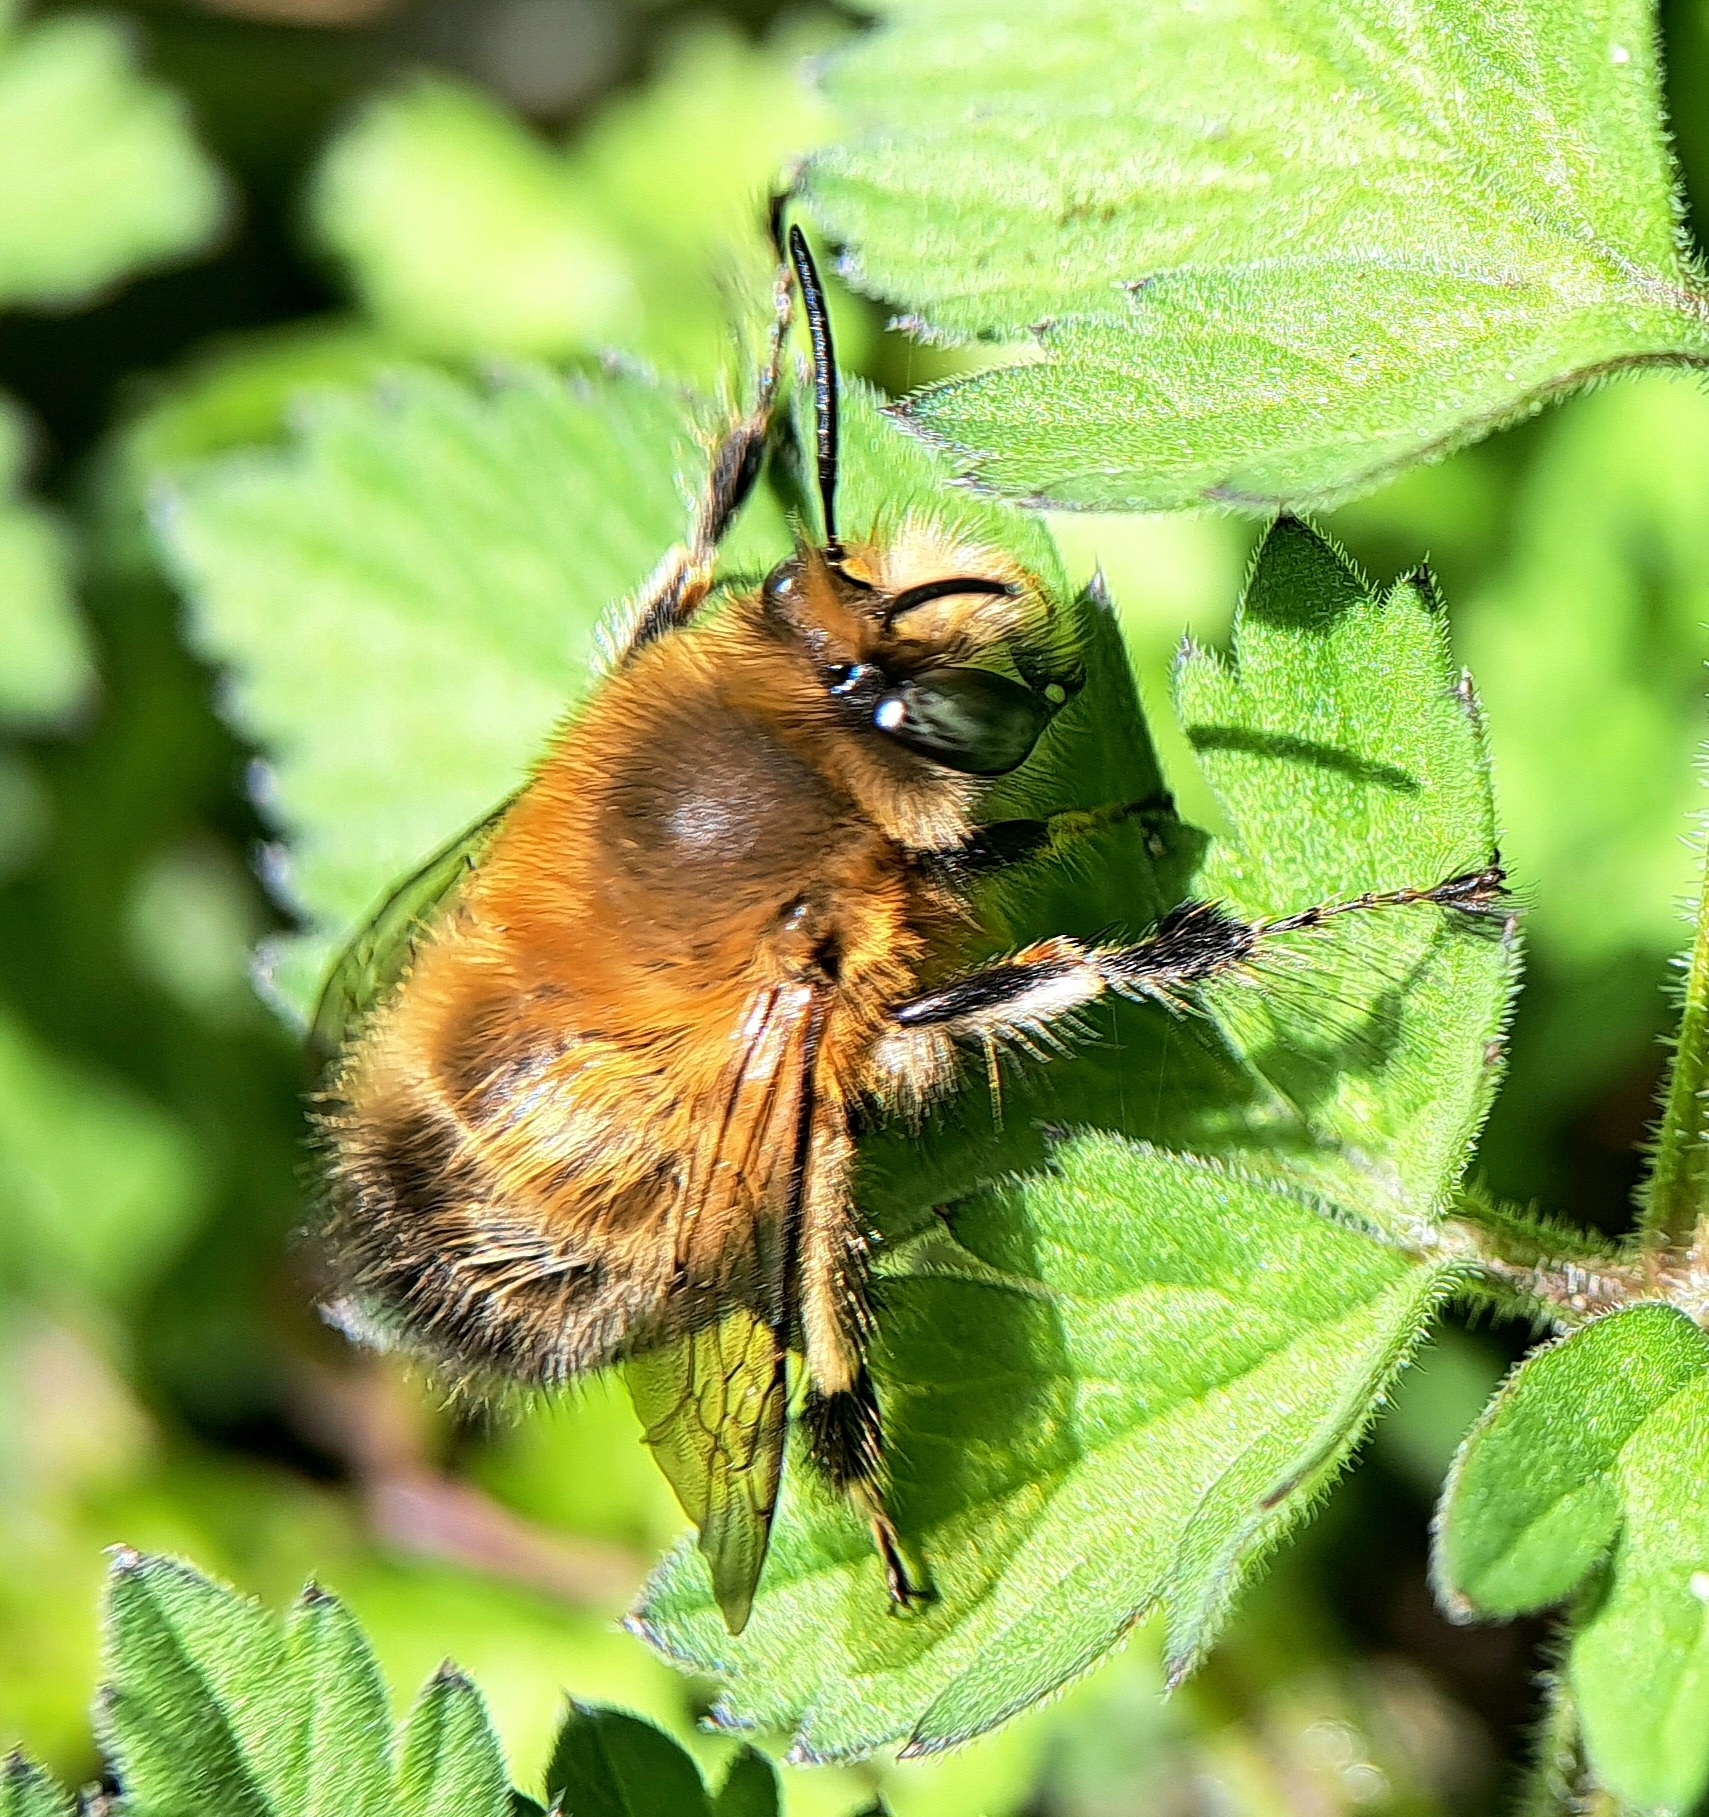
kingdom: Animalia
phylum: Arthropoda
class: Insecta
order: Hymenoptera
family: Apidae
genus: Anthophora
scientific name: Anthophora plumipes
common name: Hairy-footed flower bee
